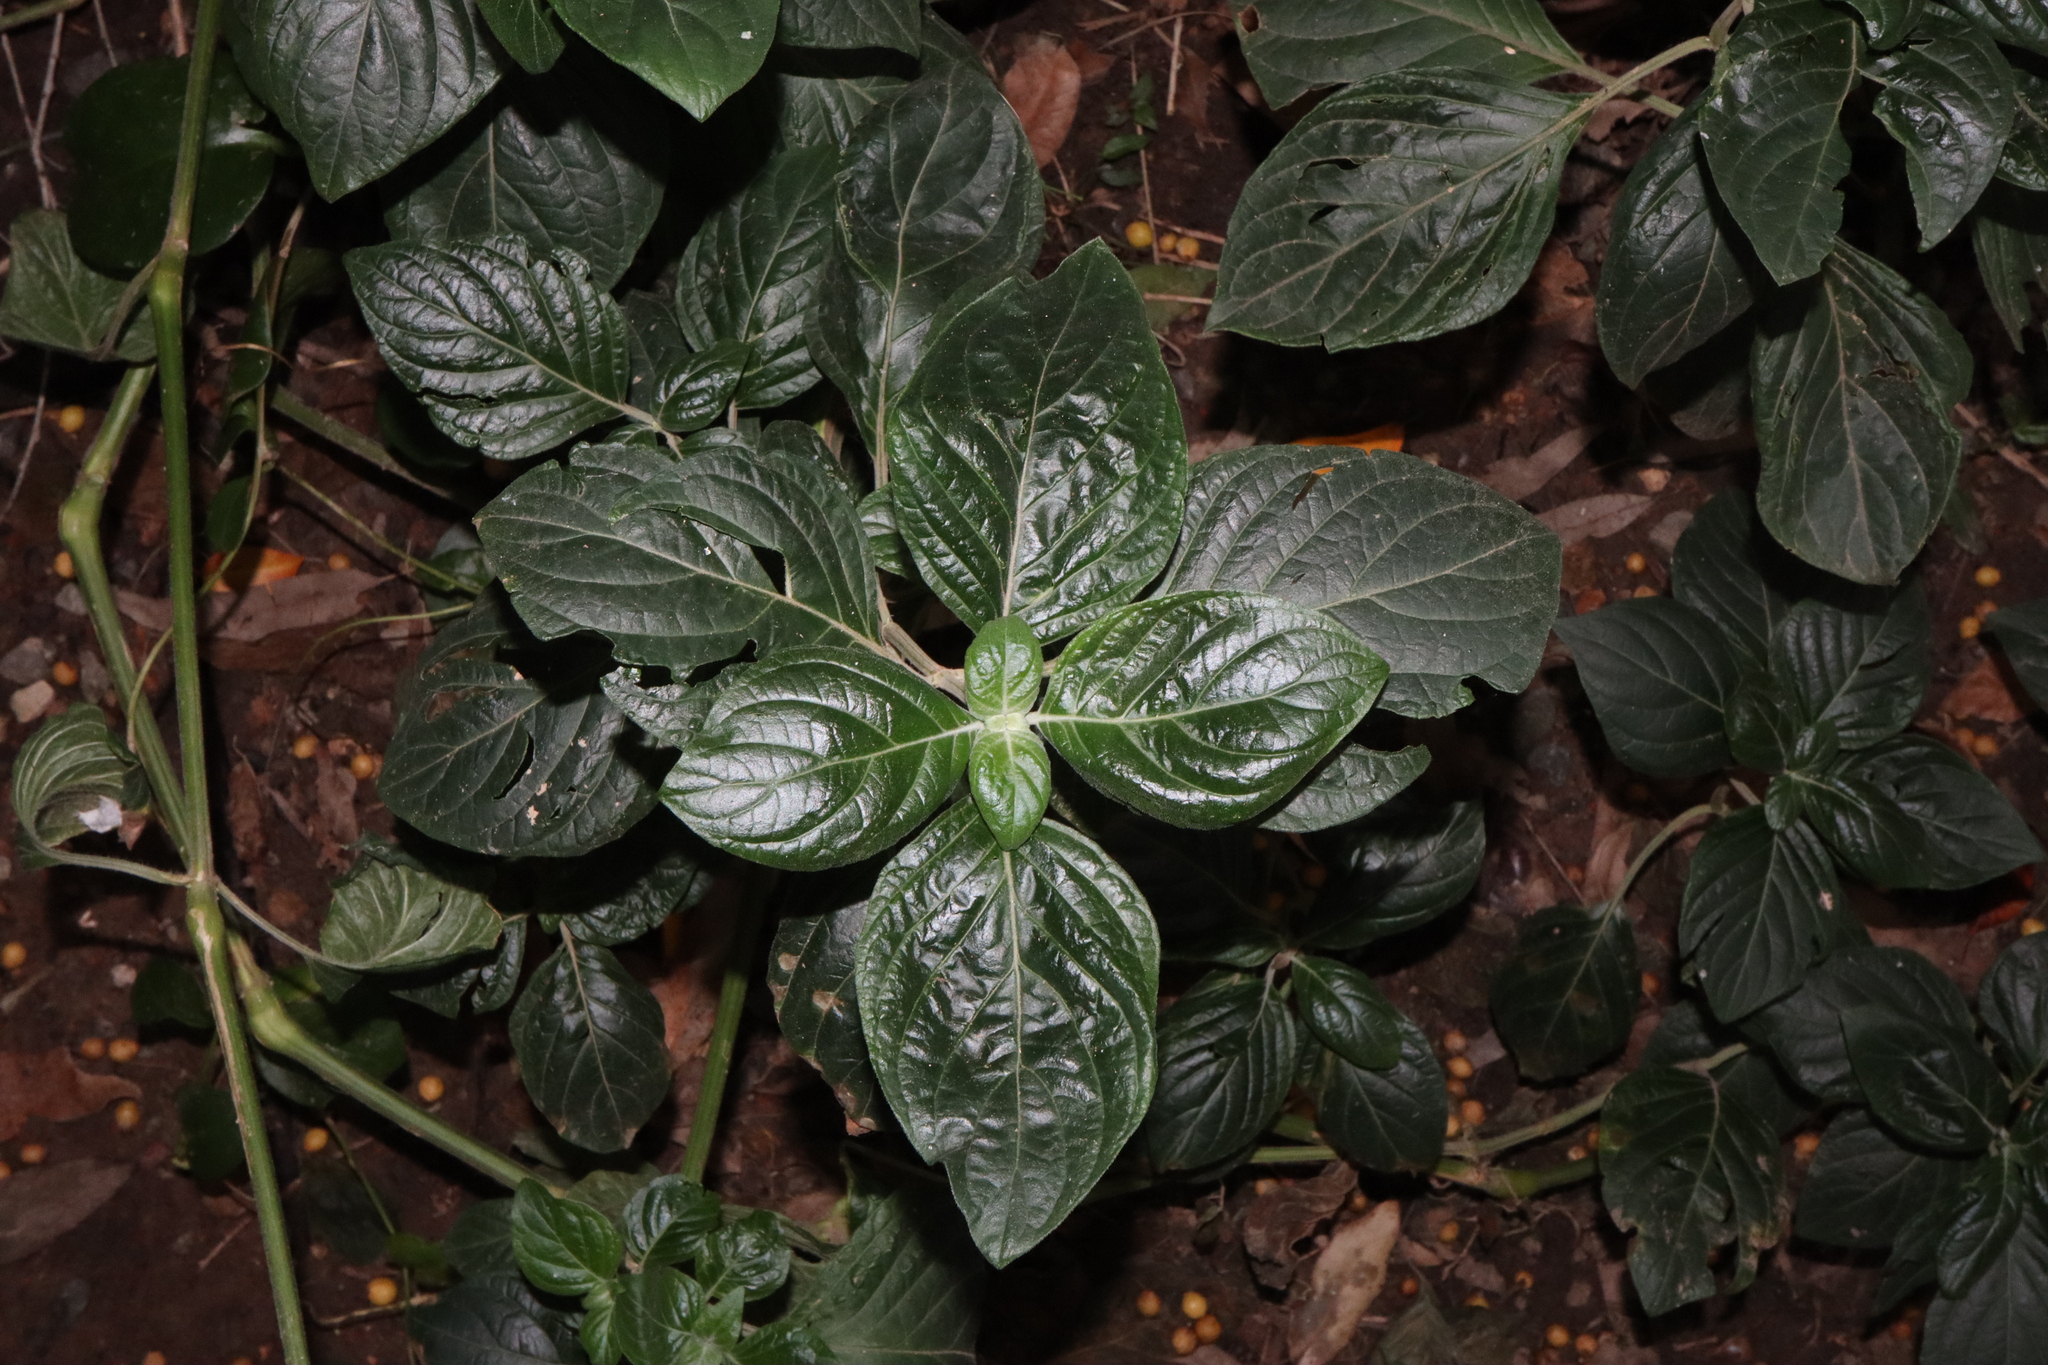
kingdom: Plantae
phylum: Tracheophyta
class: Magnoliopsida
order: Lamiales
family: Acanthaceae
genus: Hypoestes
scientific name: Hypoestes aristata
